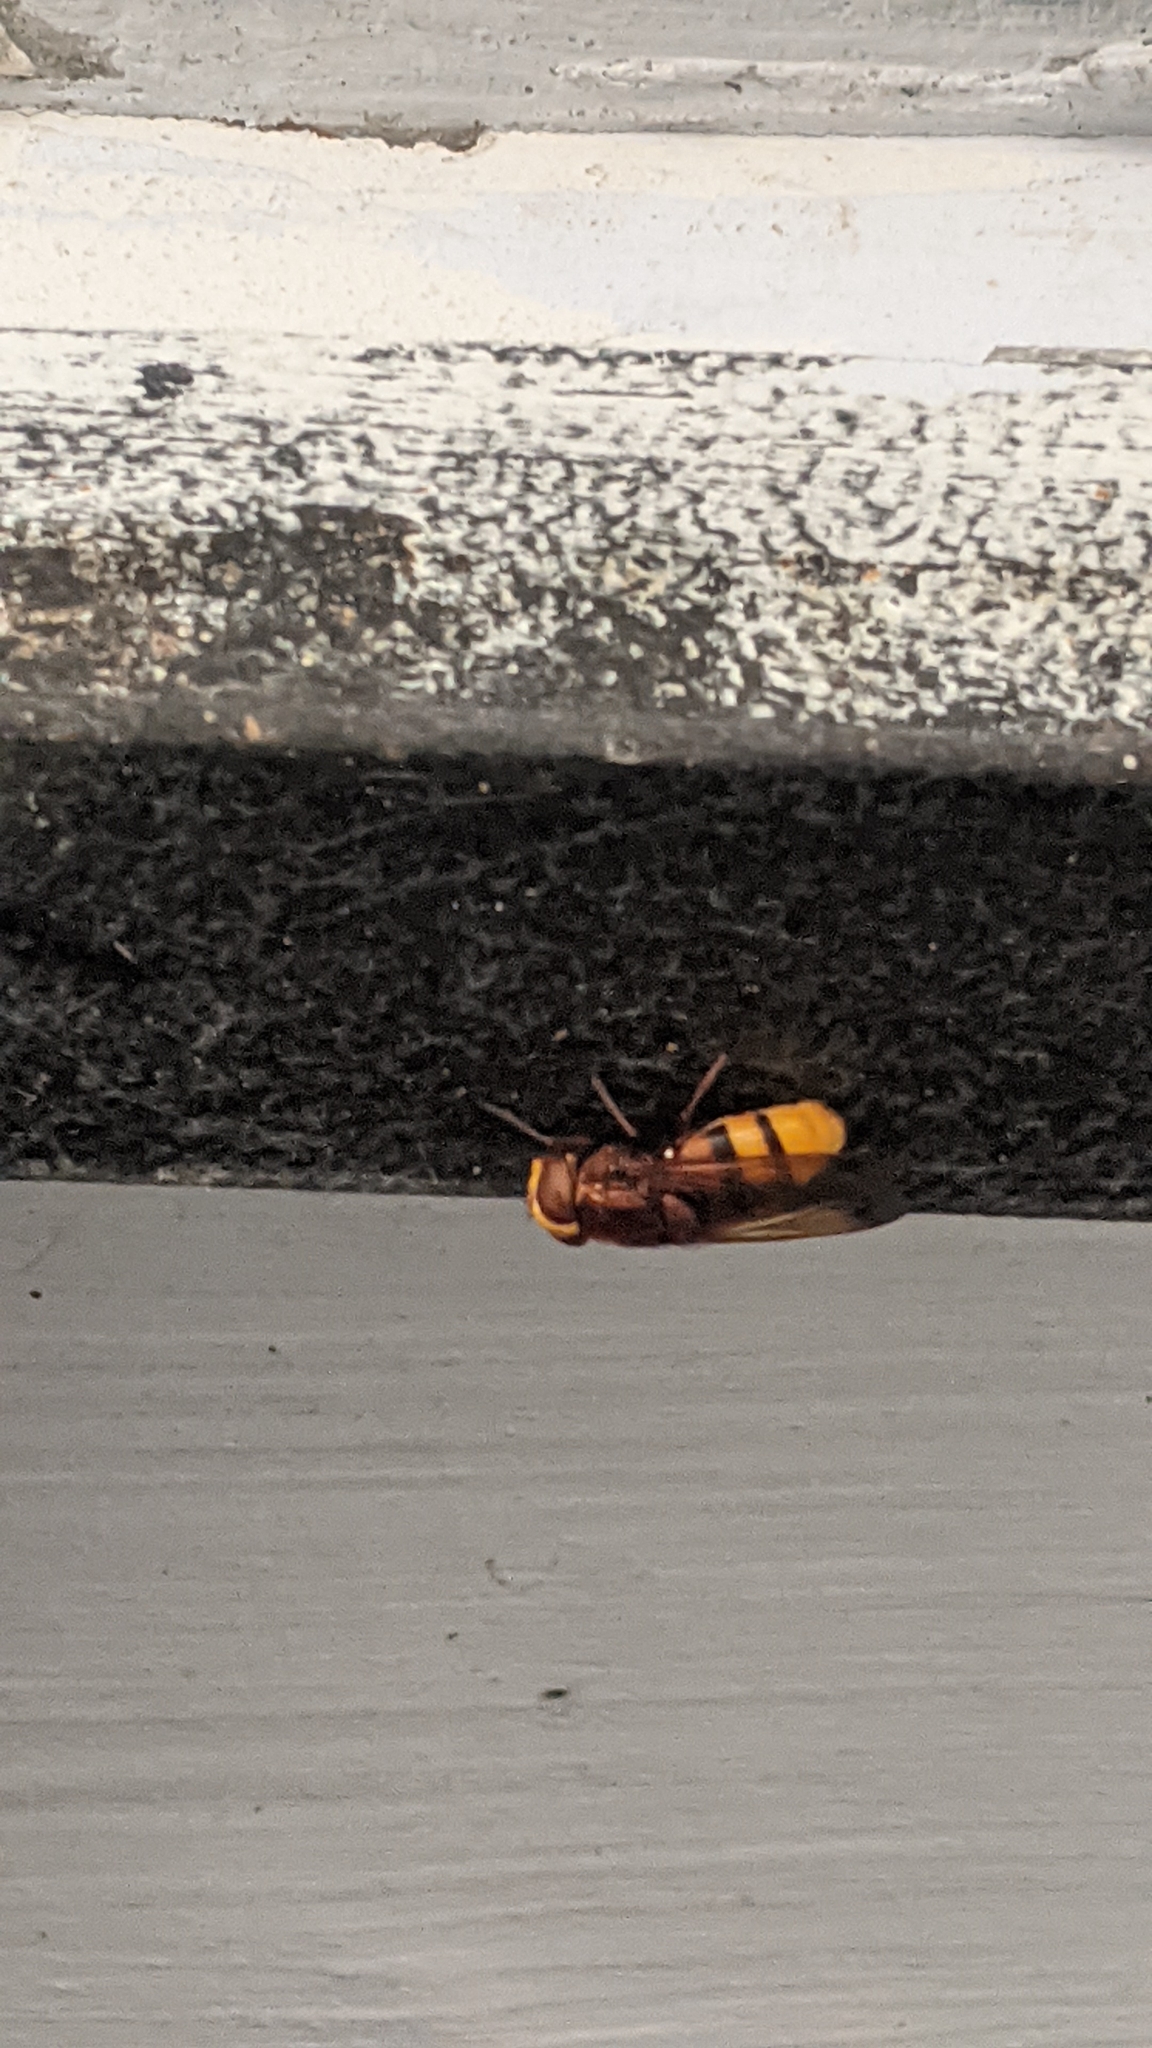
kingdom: Animalia
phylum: Arthropoda
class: Insecta
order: Diptera
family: Syrphidae
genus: Volucella
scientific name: Volucella zonaria
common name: Hornet hoverfly
